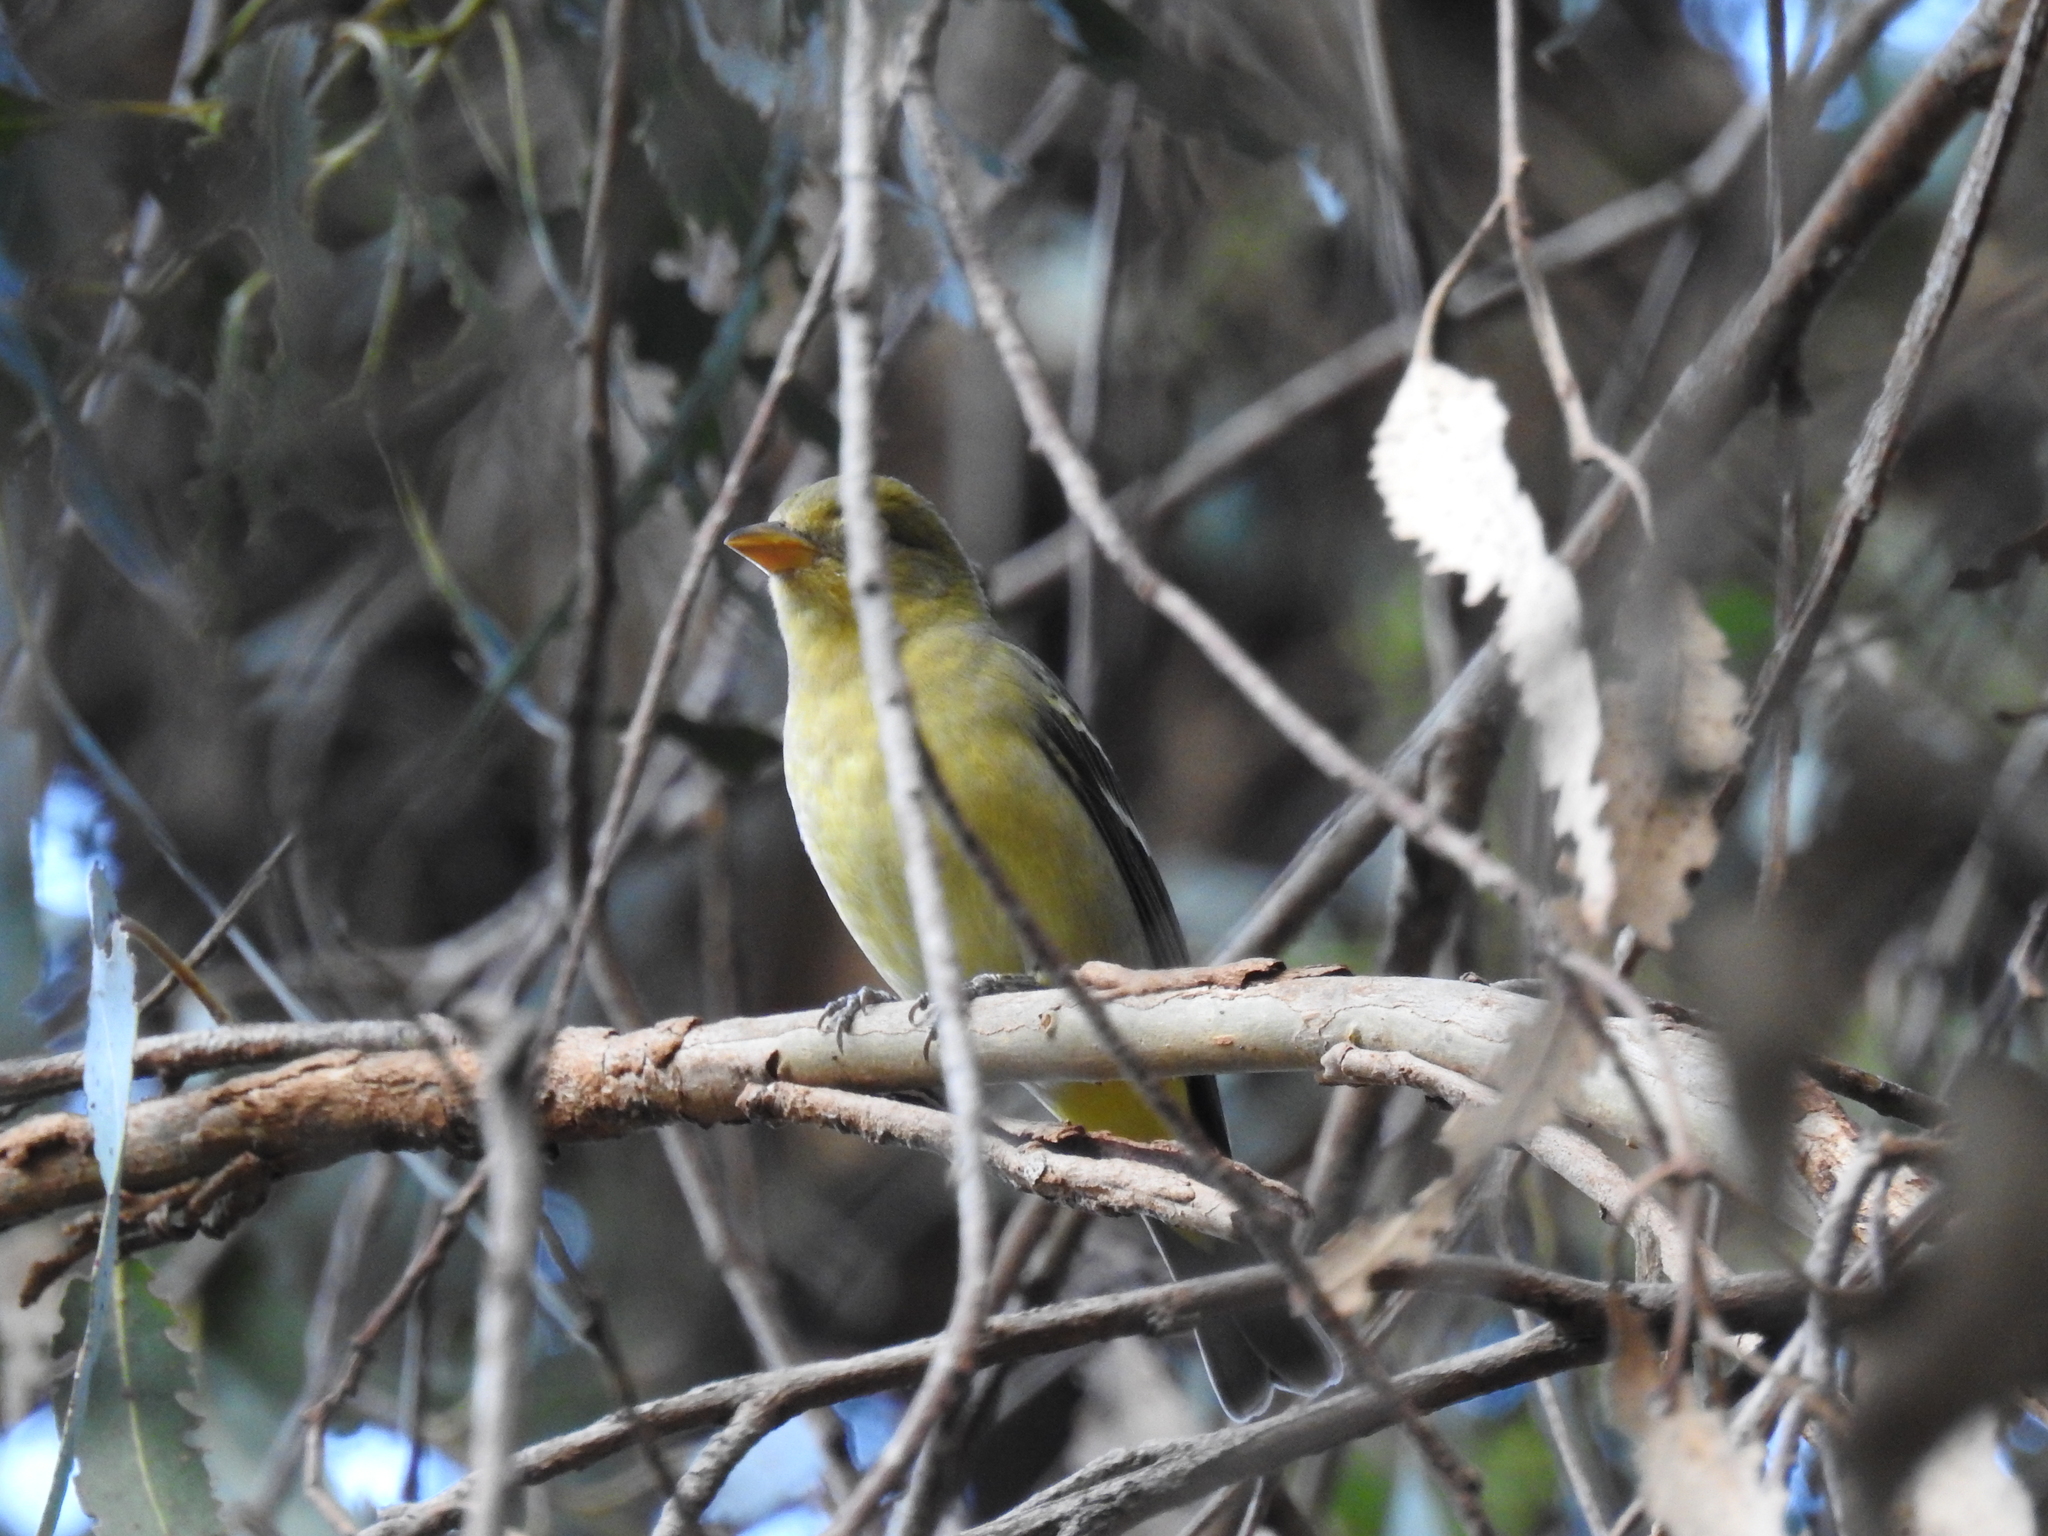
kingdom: Animalia
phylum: Chordata
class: Aves
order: Passeriformes
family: Cardinalidae
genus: Piranga
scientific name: Piranga ludoviciana
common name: Western tanager
